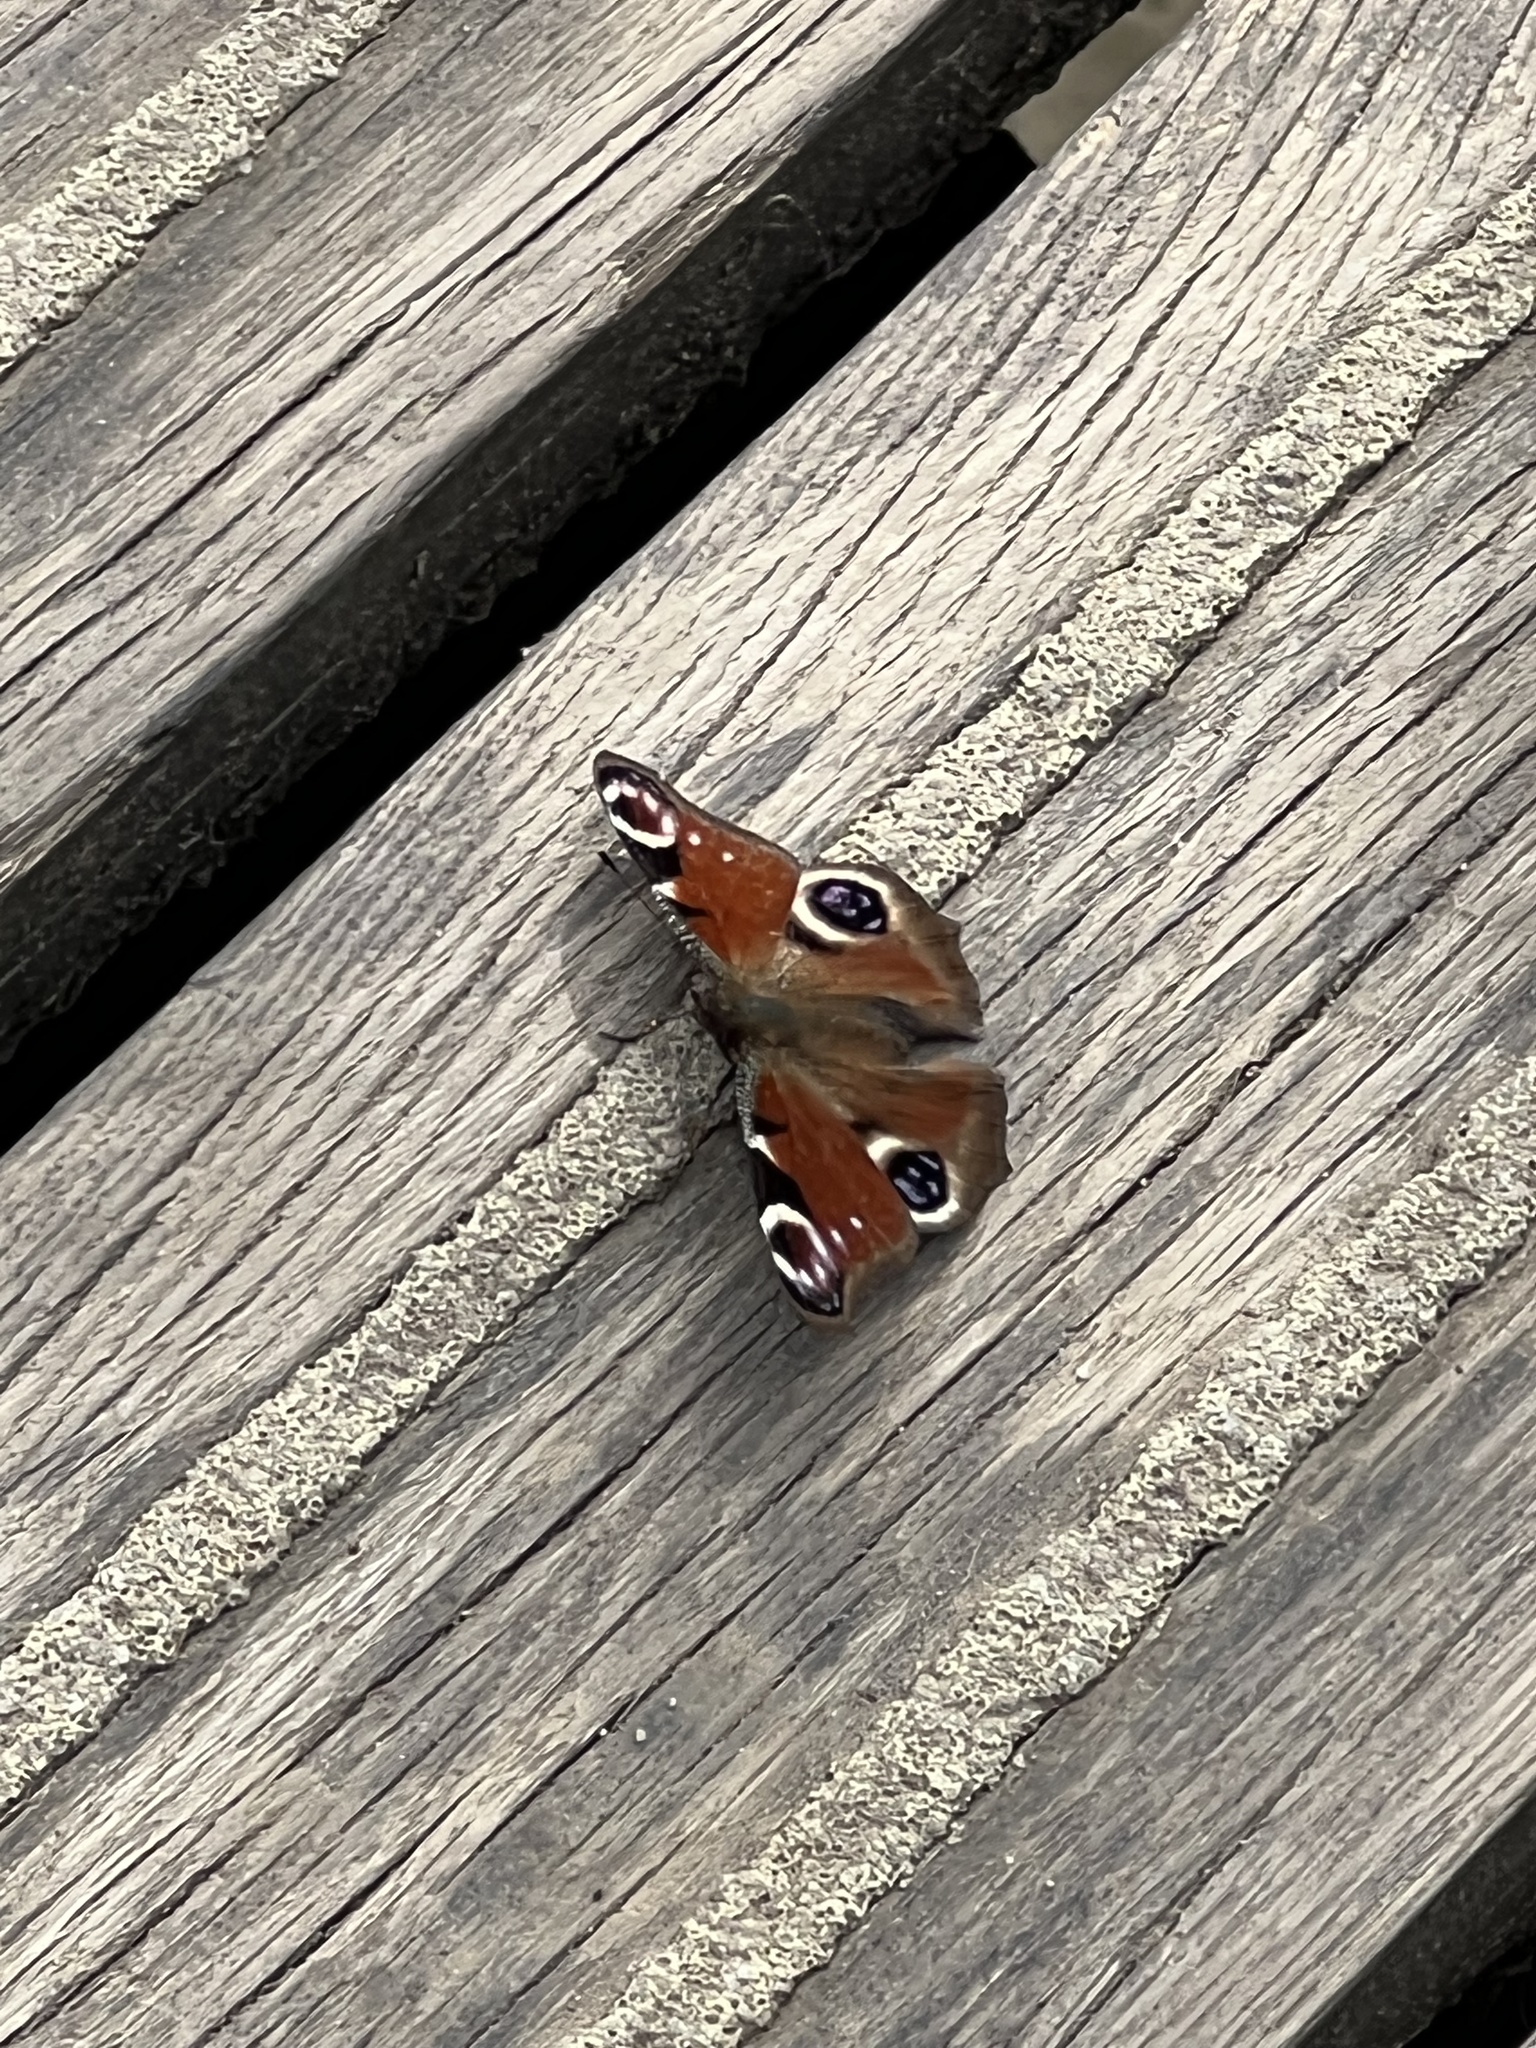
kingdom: Animalia
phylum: Arthropoda
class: Insecta
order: Lepidoptera
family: Nymphalidae
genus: Aglais
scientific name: Aglais io
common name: Peacock
